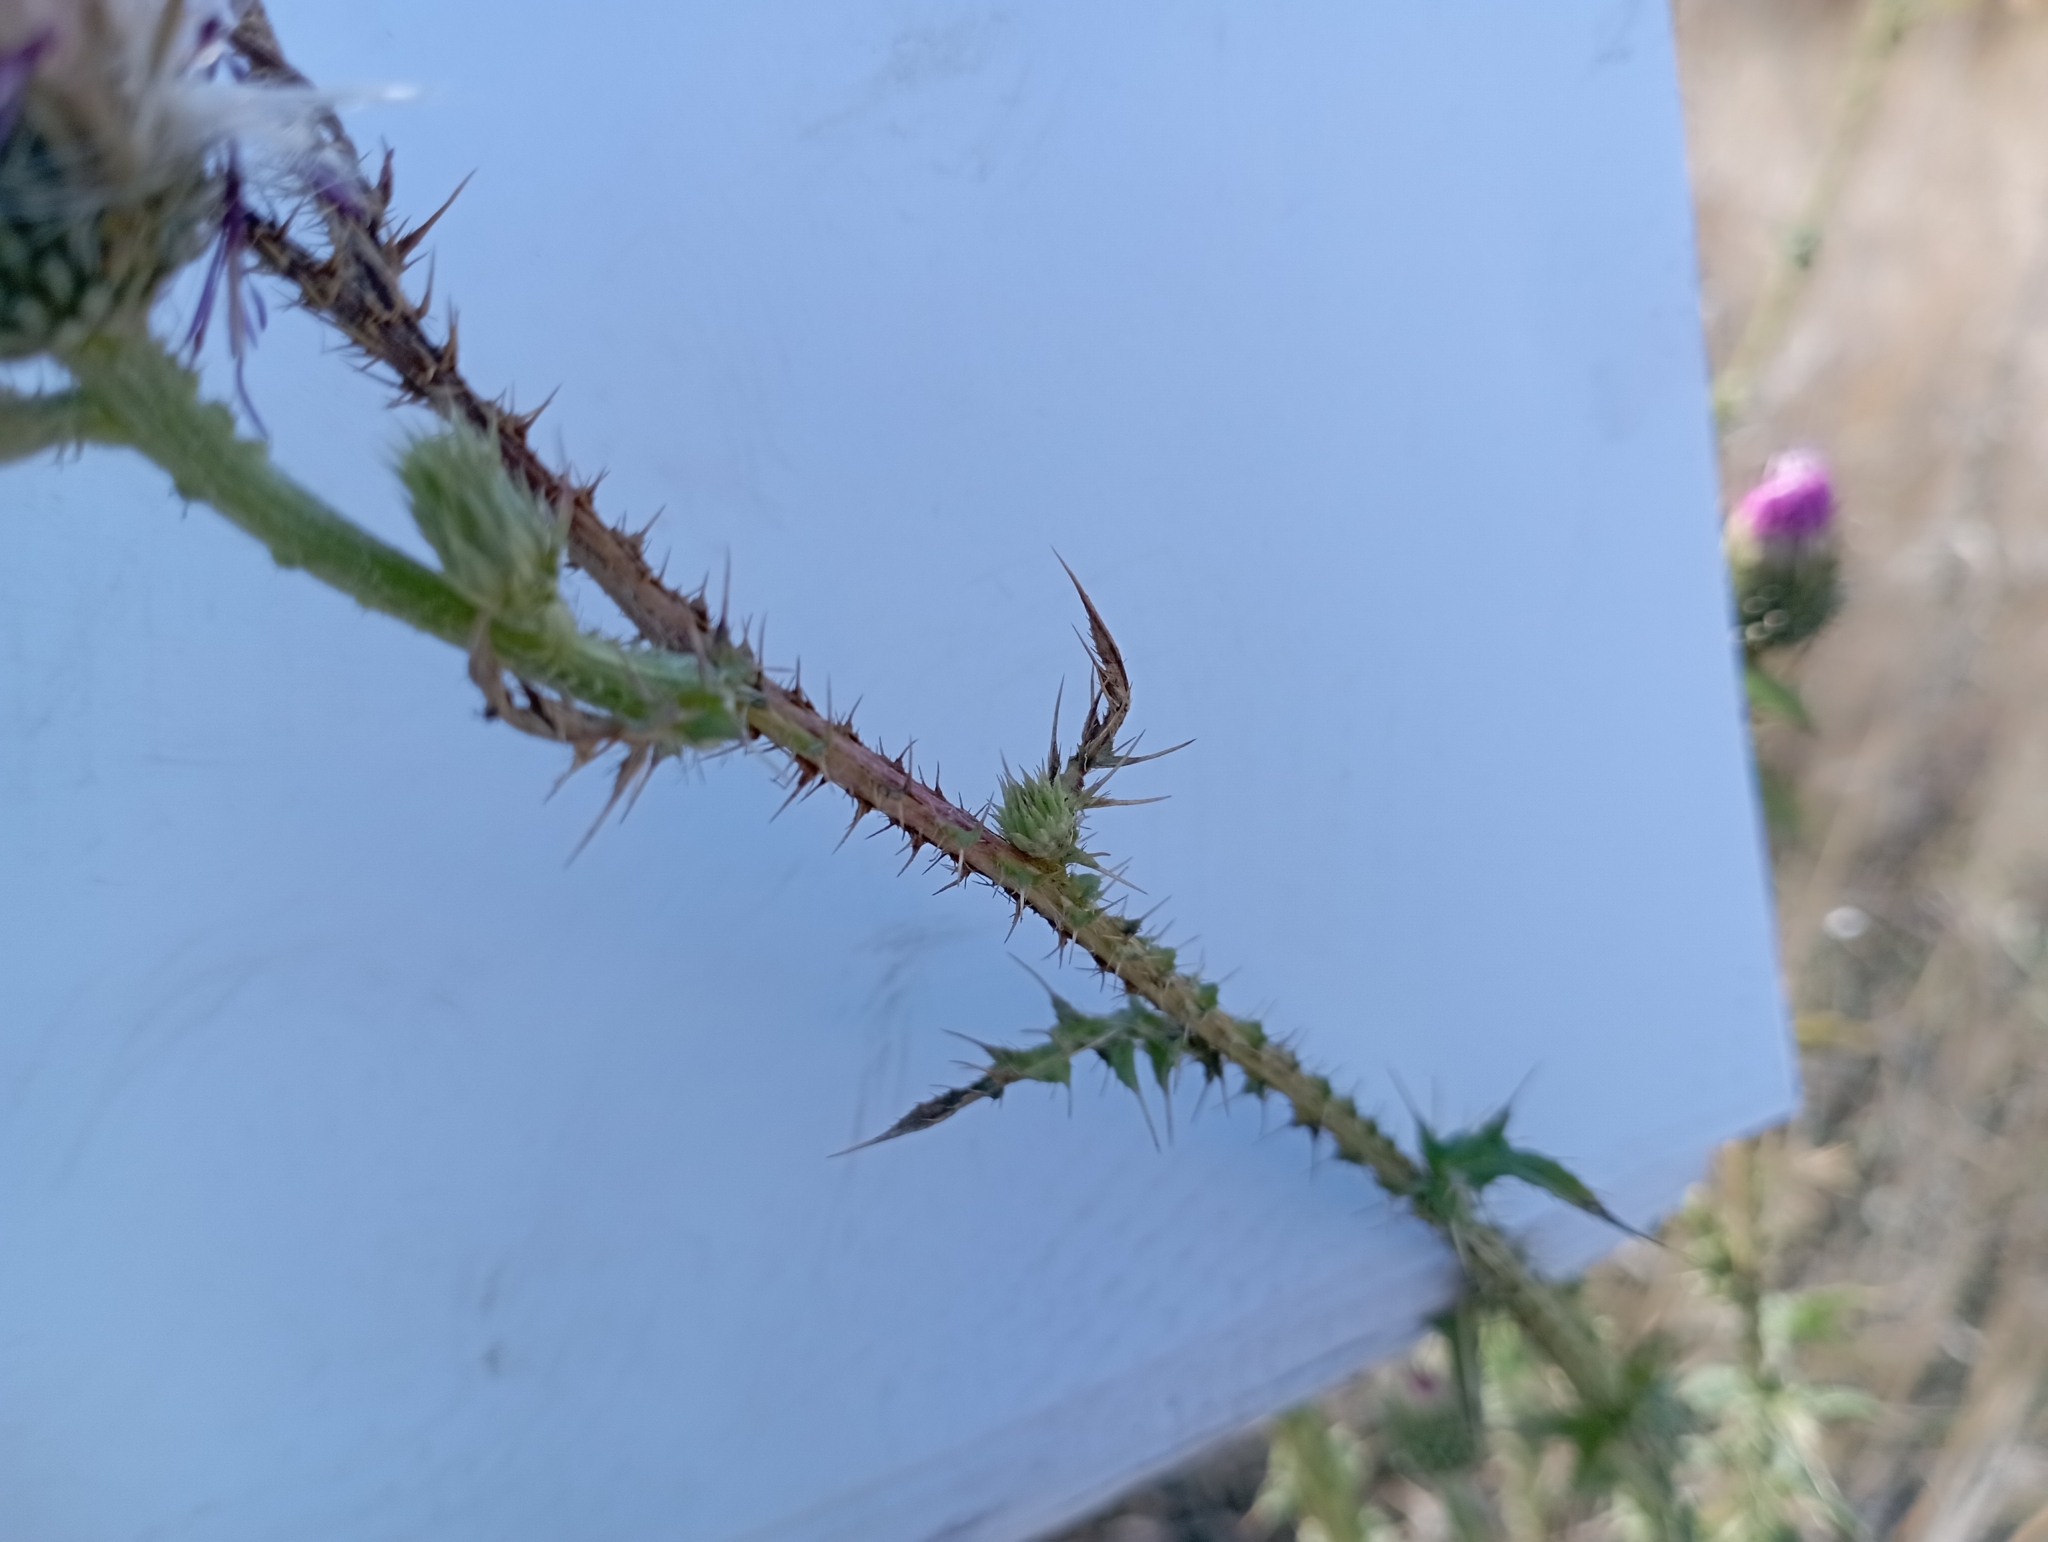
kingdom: Plantae
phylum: Tracheophyta
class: Magnoliopsida
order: Asterales
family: Asteraceae
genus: Carduus
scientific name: Carduus acanthoides
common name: Plumeless thistle
